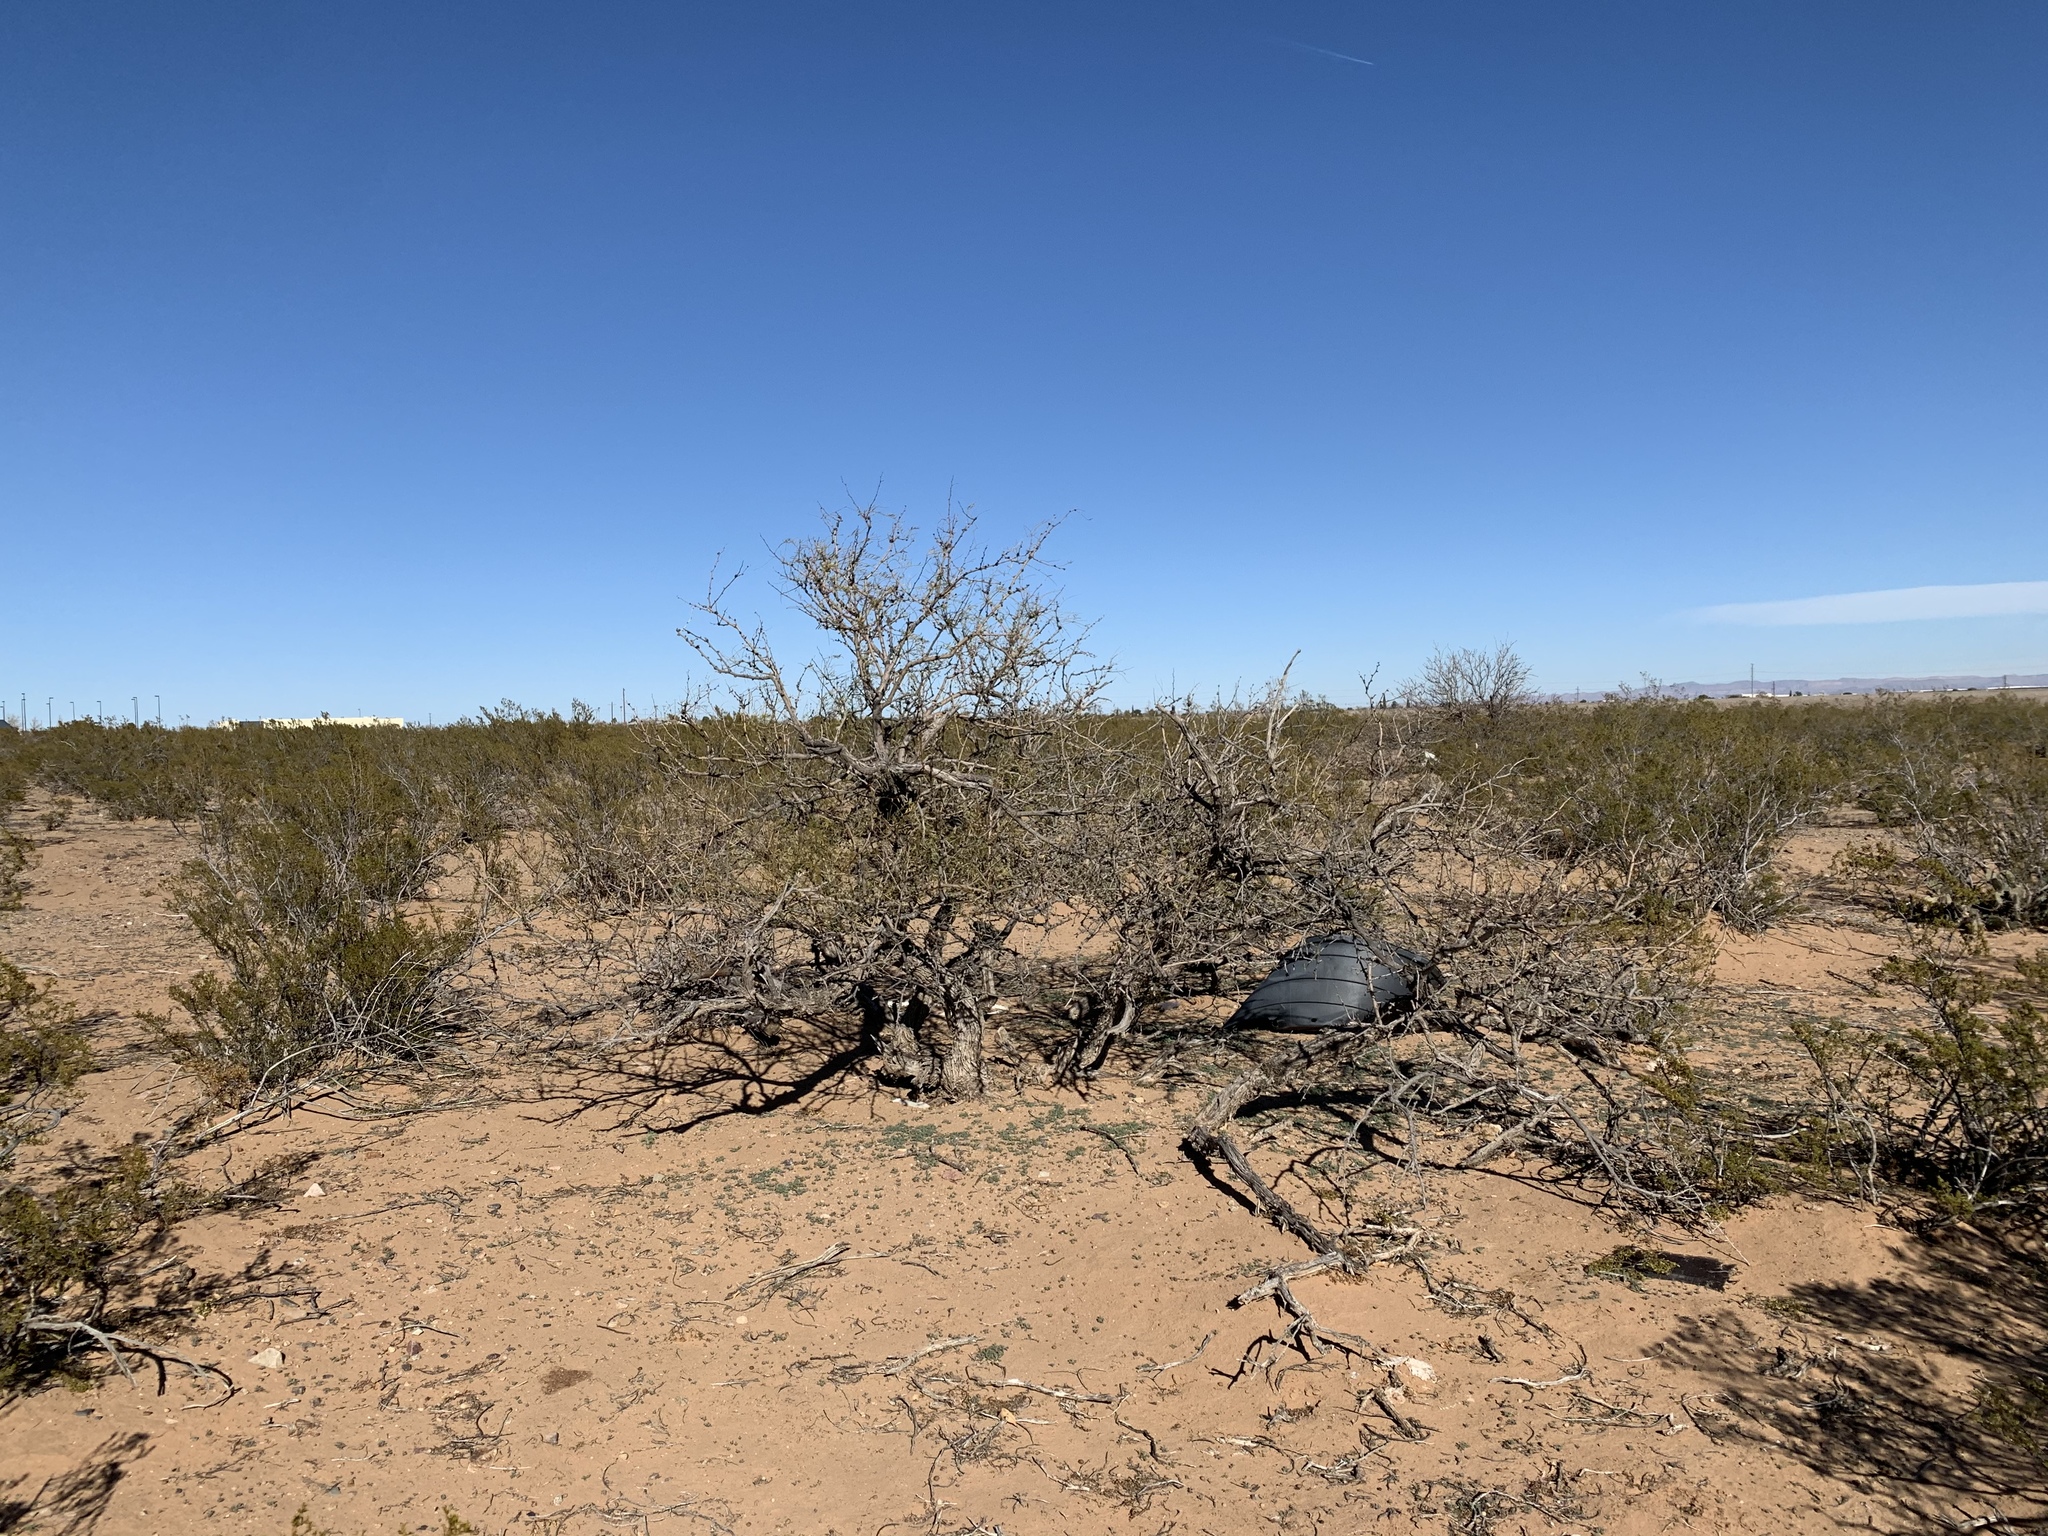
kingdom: Plantae
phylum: Tracheophyta
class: Magnoliopsida
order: Fabales
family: Fabaceae
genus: Prosopis
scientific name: Prosopis glandulosa
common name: Honey mesquite
